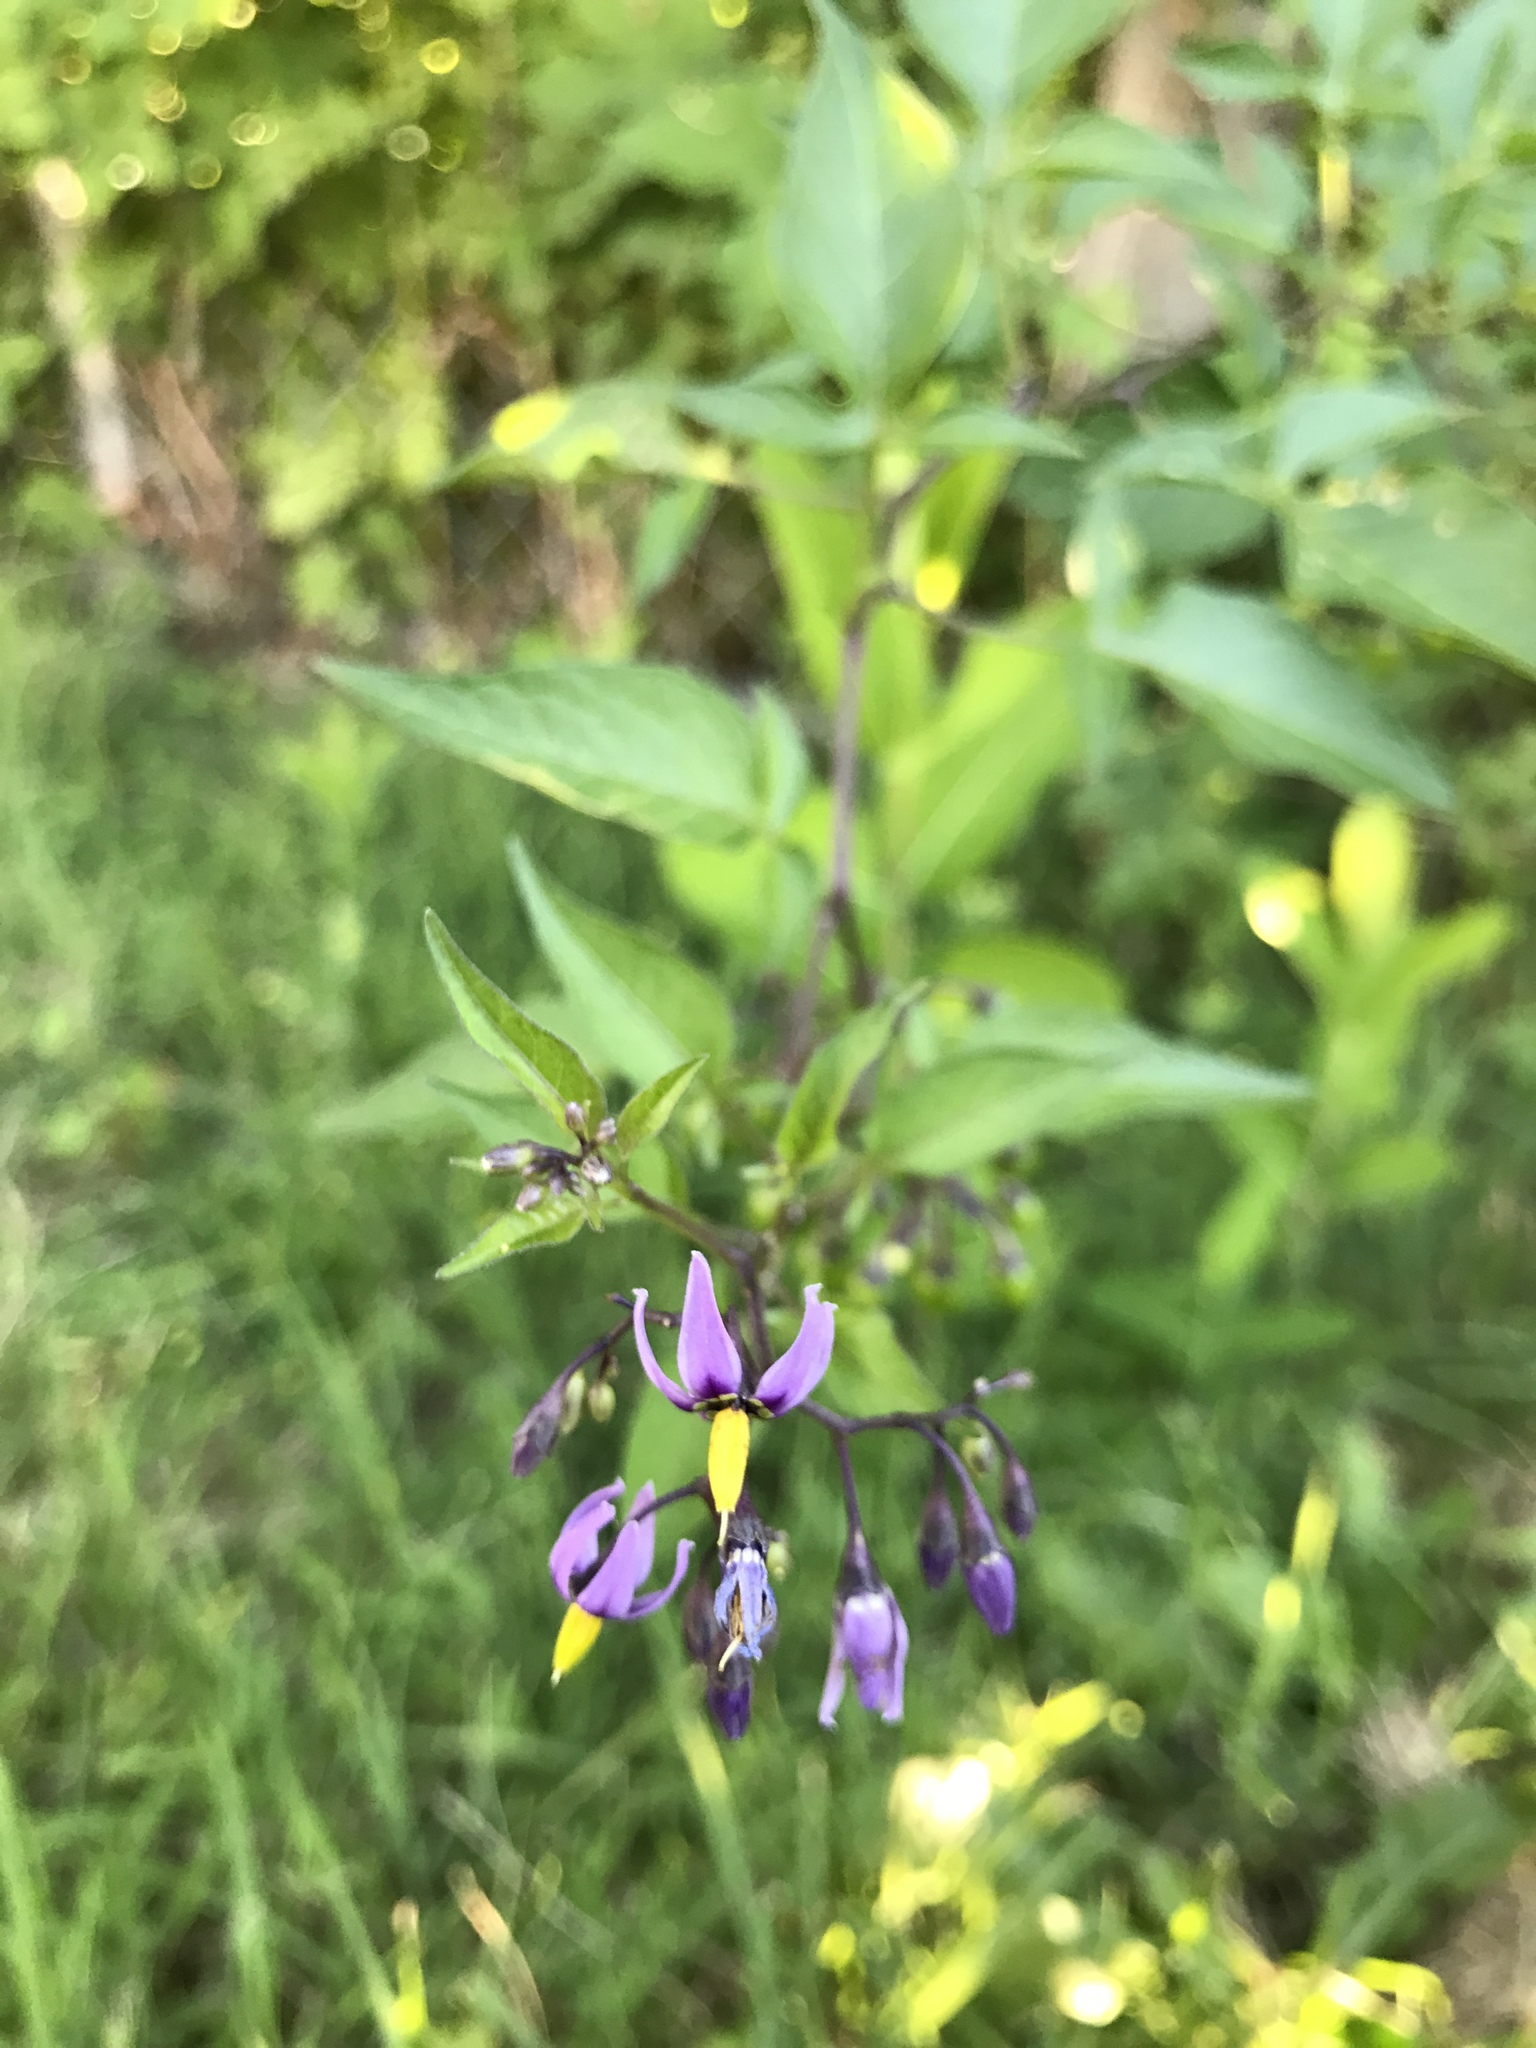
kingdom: Plantae
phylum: Tracheophyta
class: Magnoliopsida
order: Solanales
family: Solanaceae
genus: Solanum
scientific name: Solanum dulcamara
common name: Climbing nightshade
